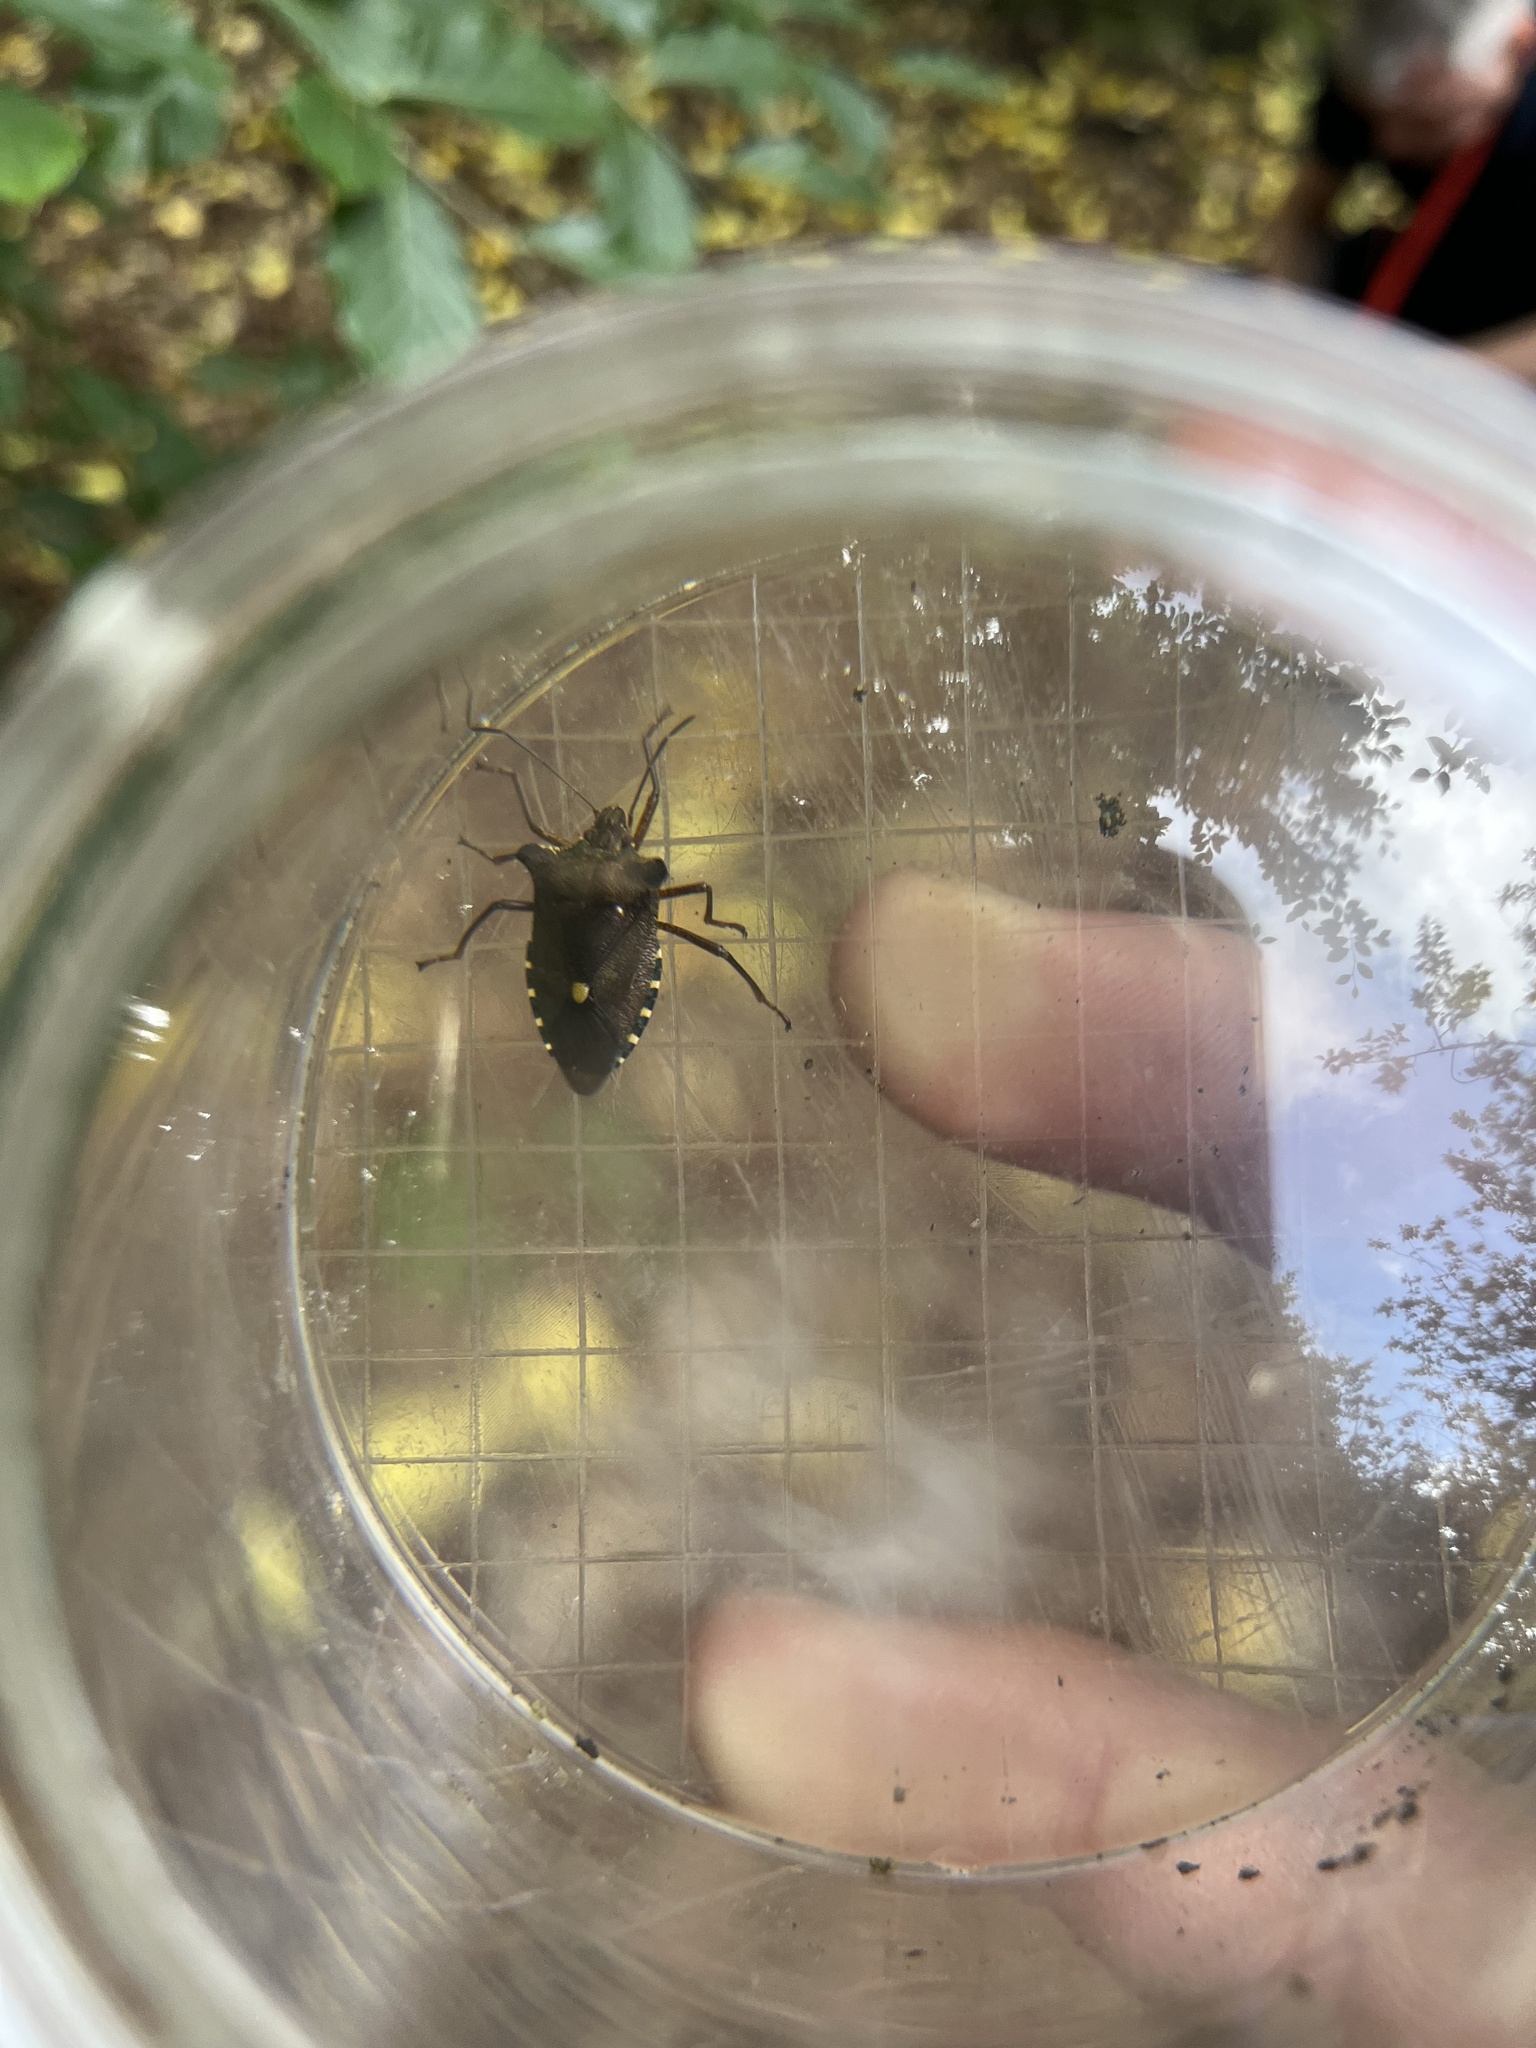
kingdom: Animalia
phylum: Arthropoda
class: Insecta
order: Hemiptera
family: Pentatomidae
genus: Pentatoma
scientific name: Pentatoma rufipes
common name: Forest bug
